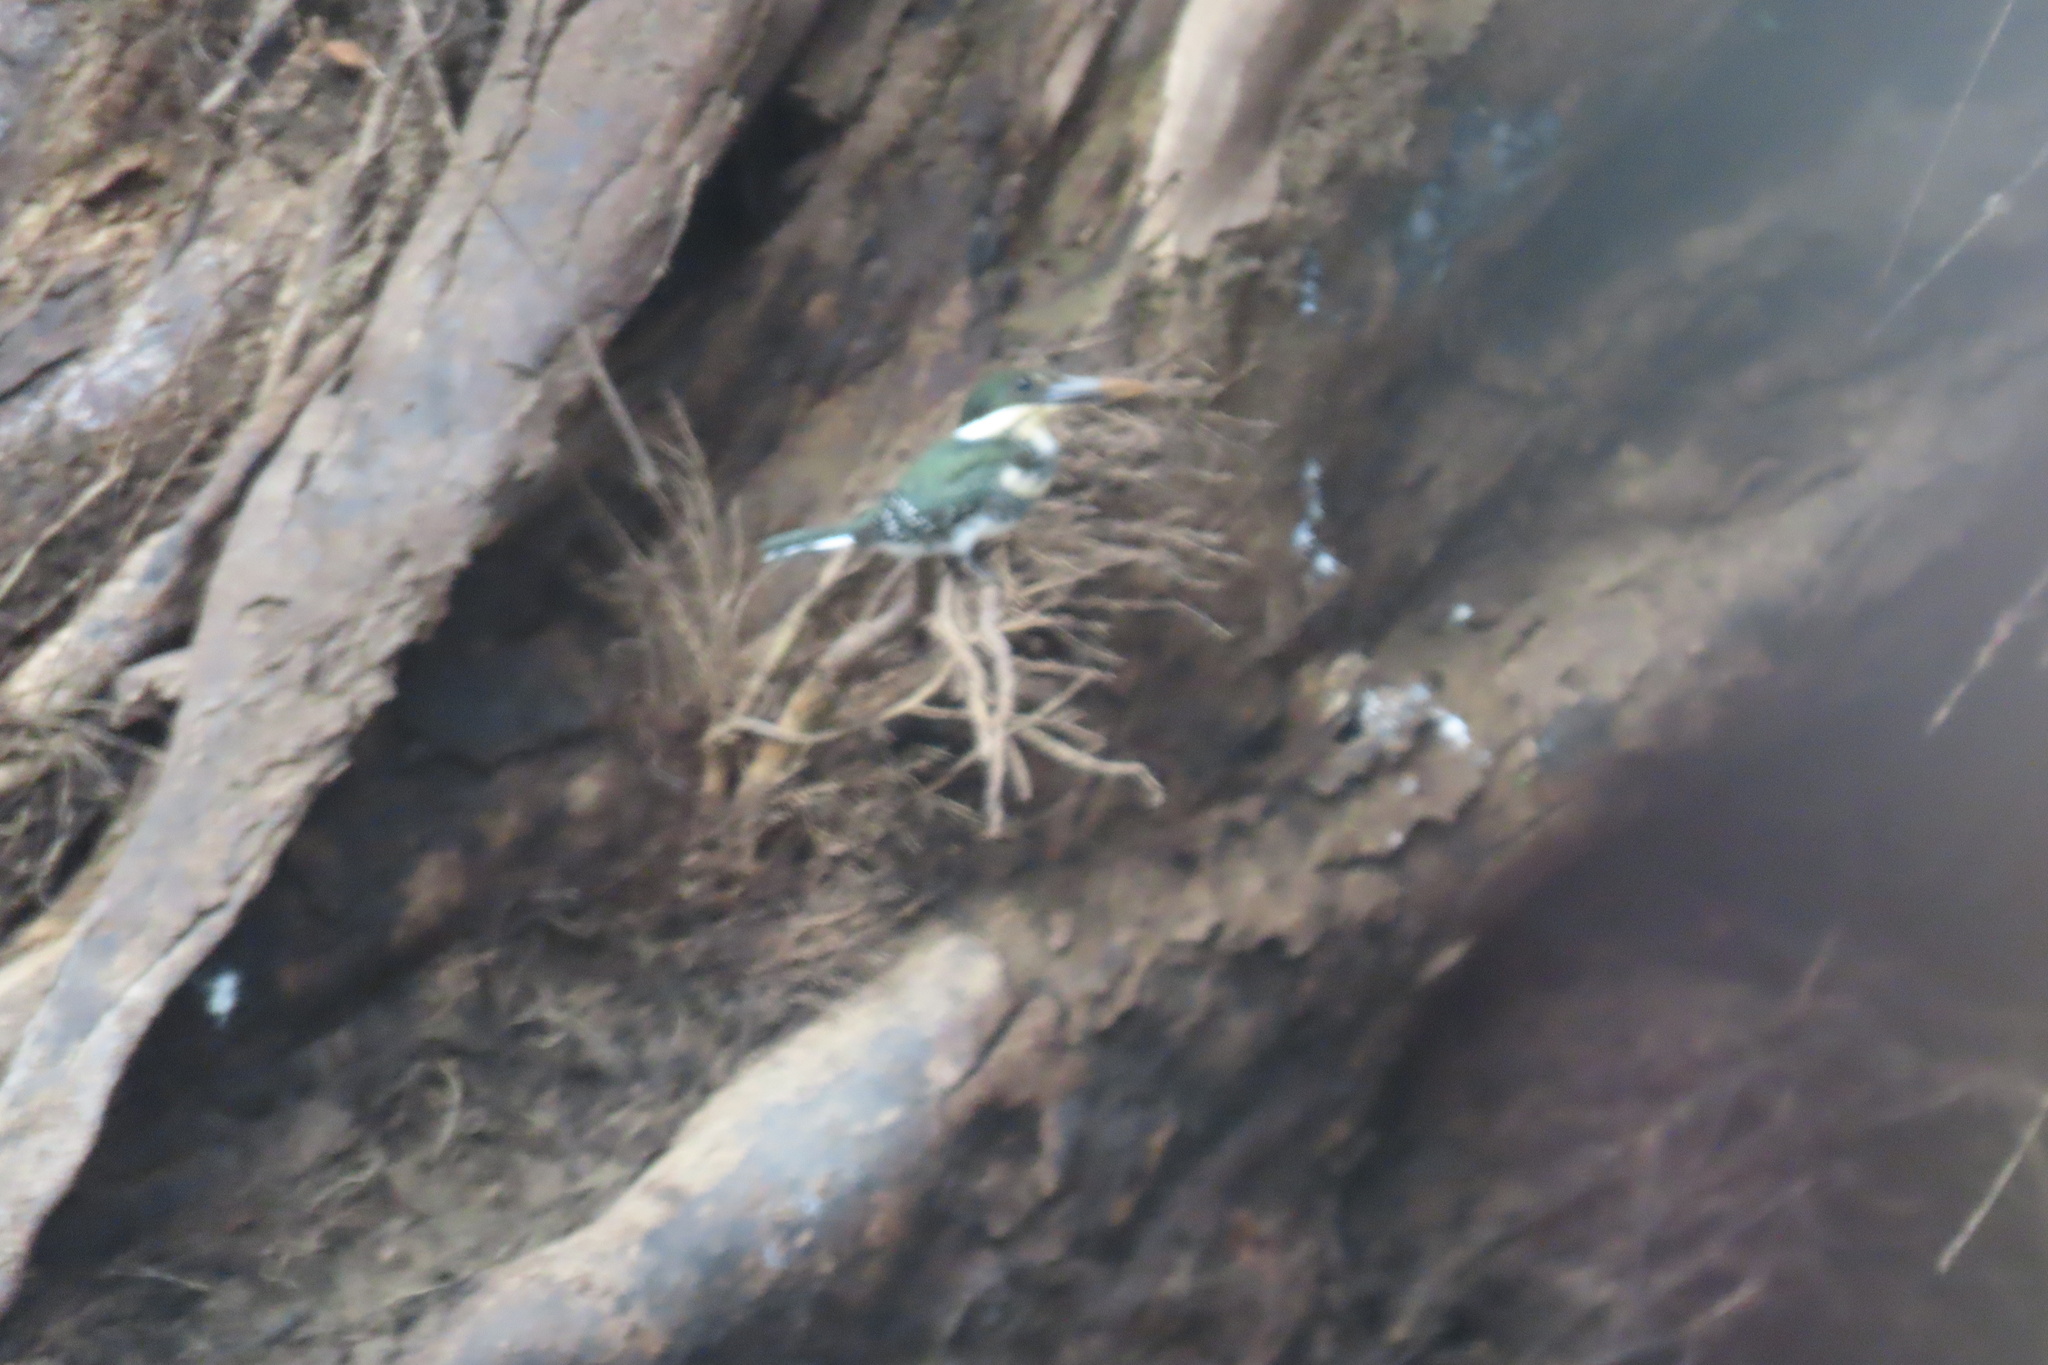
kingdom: Animalia
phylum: Chordata
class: Aves
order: Coraciiformes
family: Alcedinidae
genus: Chloroceryle
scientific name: Chloroceryle americana
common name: Green kingfisher
